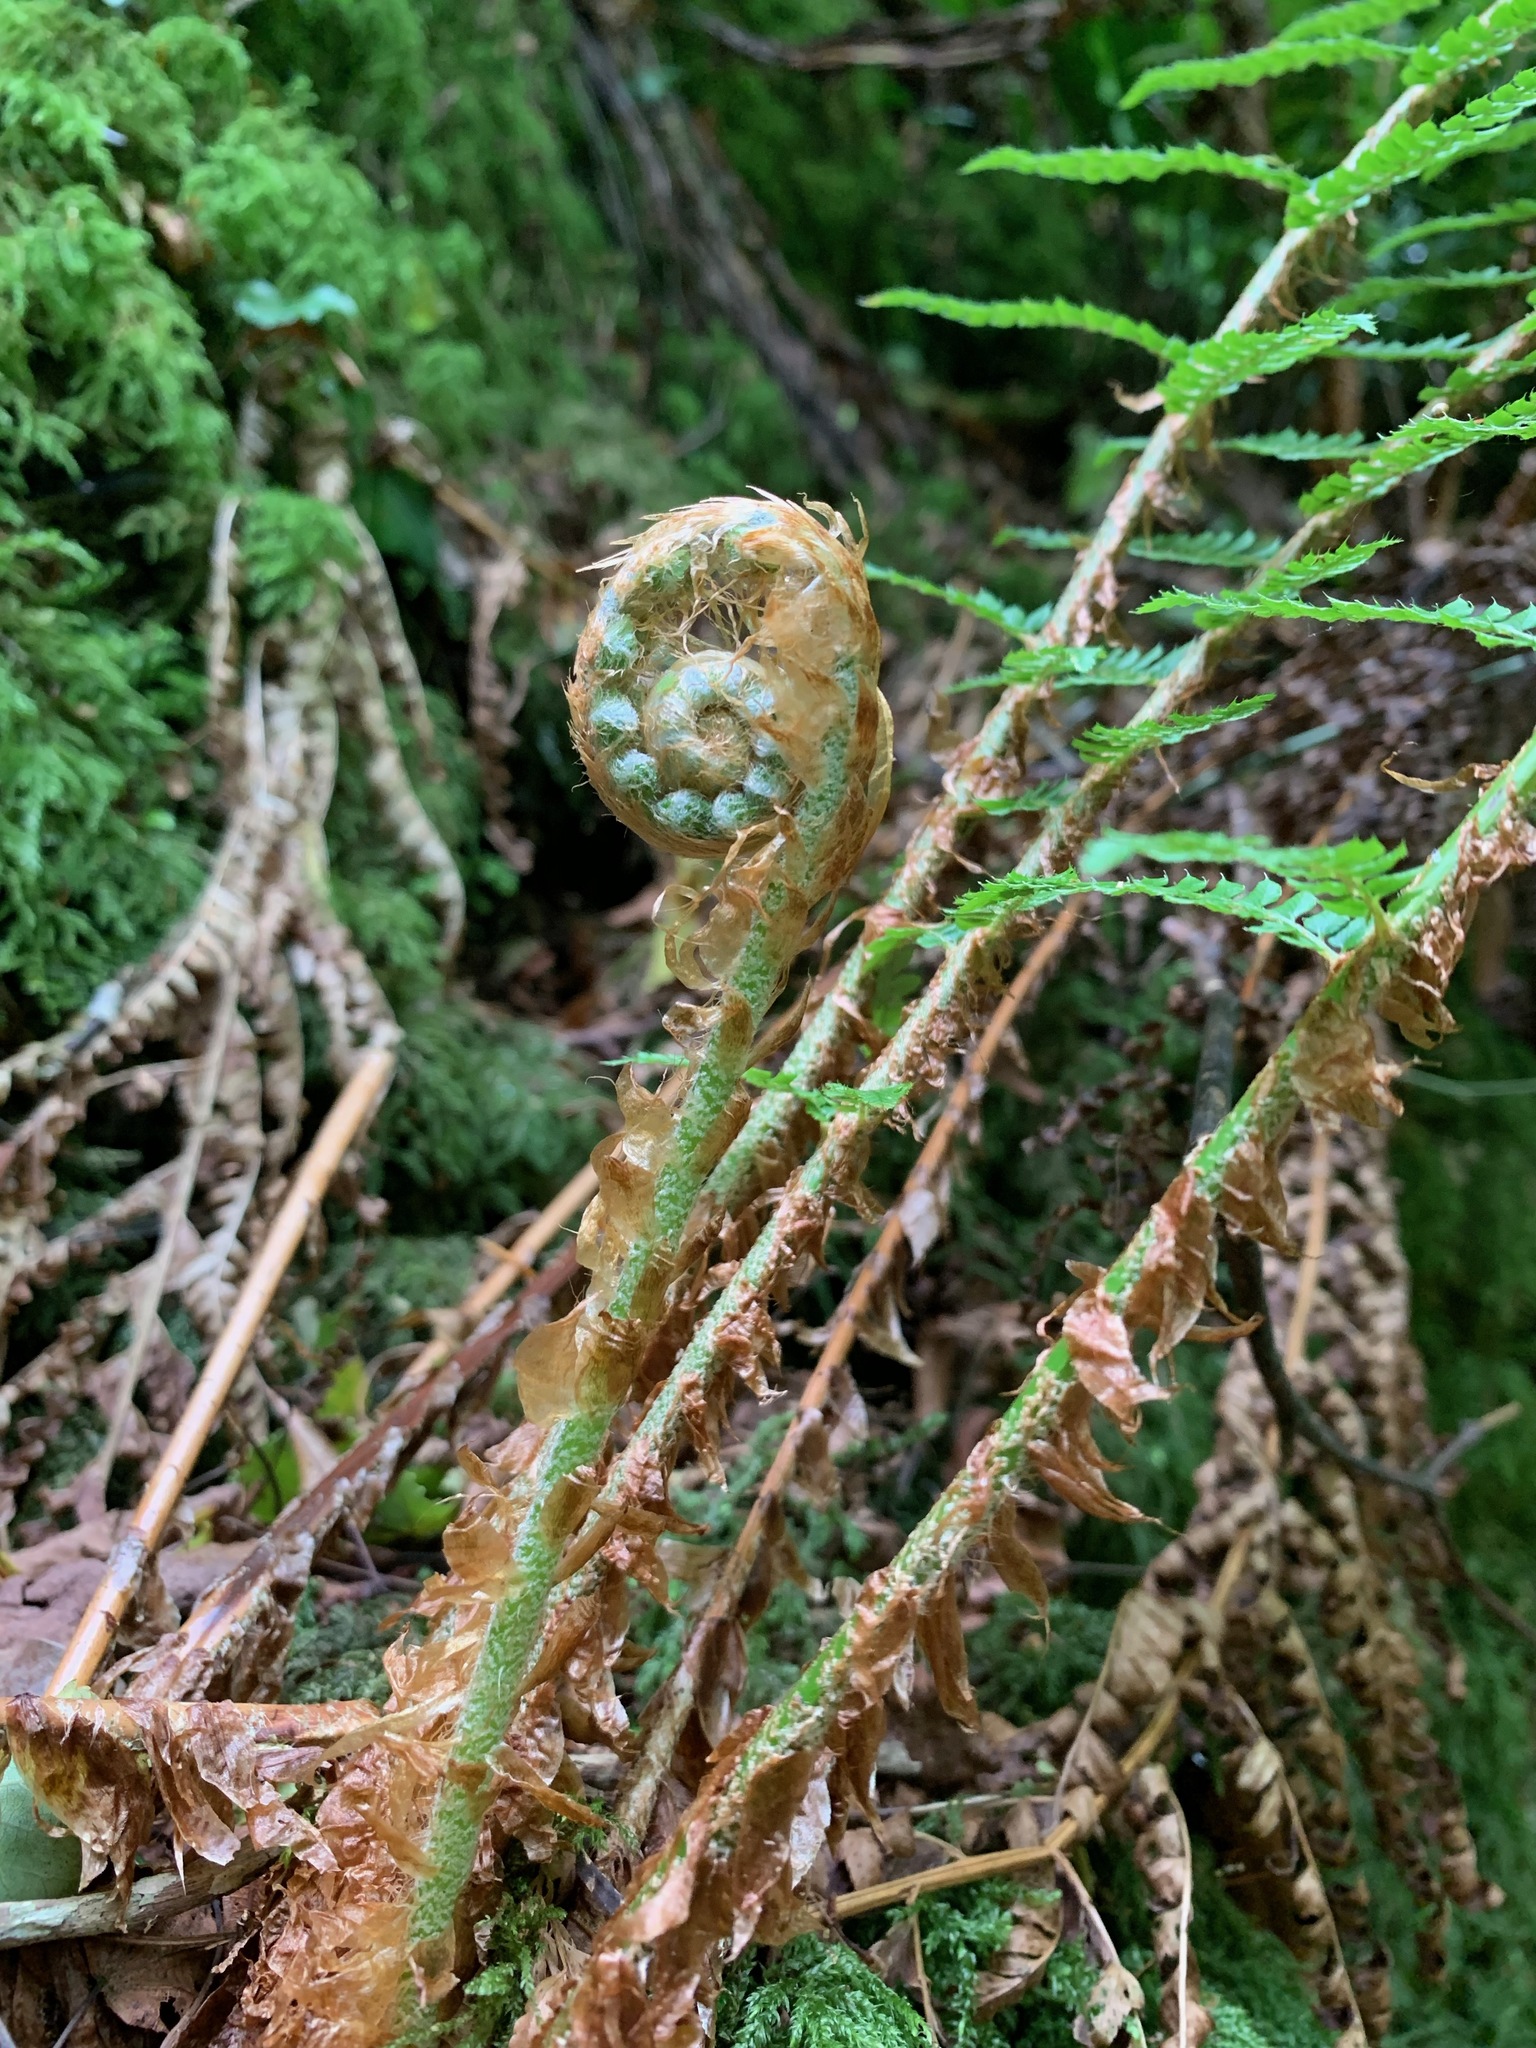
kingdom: Plantae
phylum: Tracheophyta
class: Polypodiopsida
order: Polypodiales
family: Dryopteridaceae
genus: Polystichum
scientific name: Polystichum setiferum
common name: Soft shield-fern
